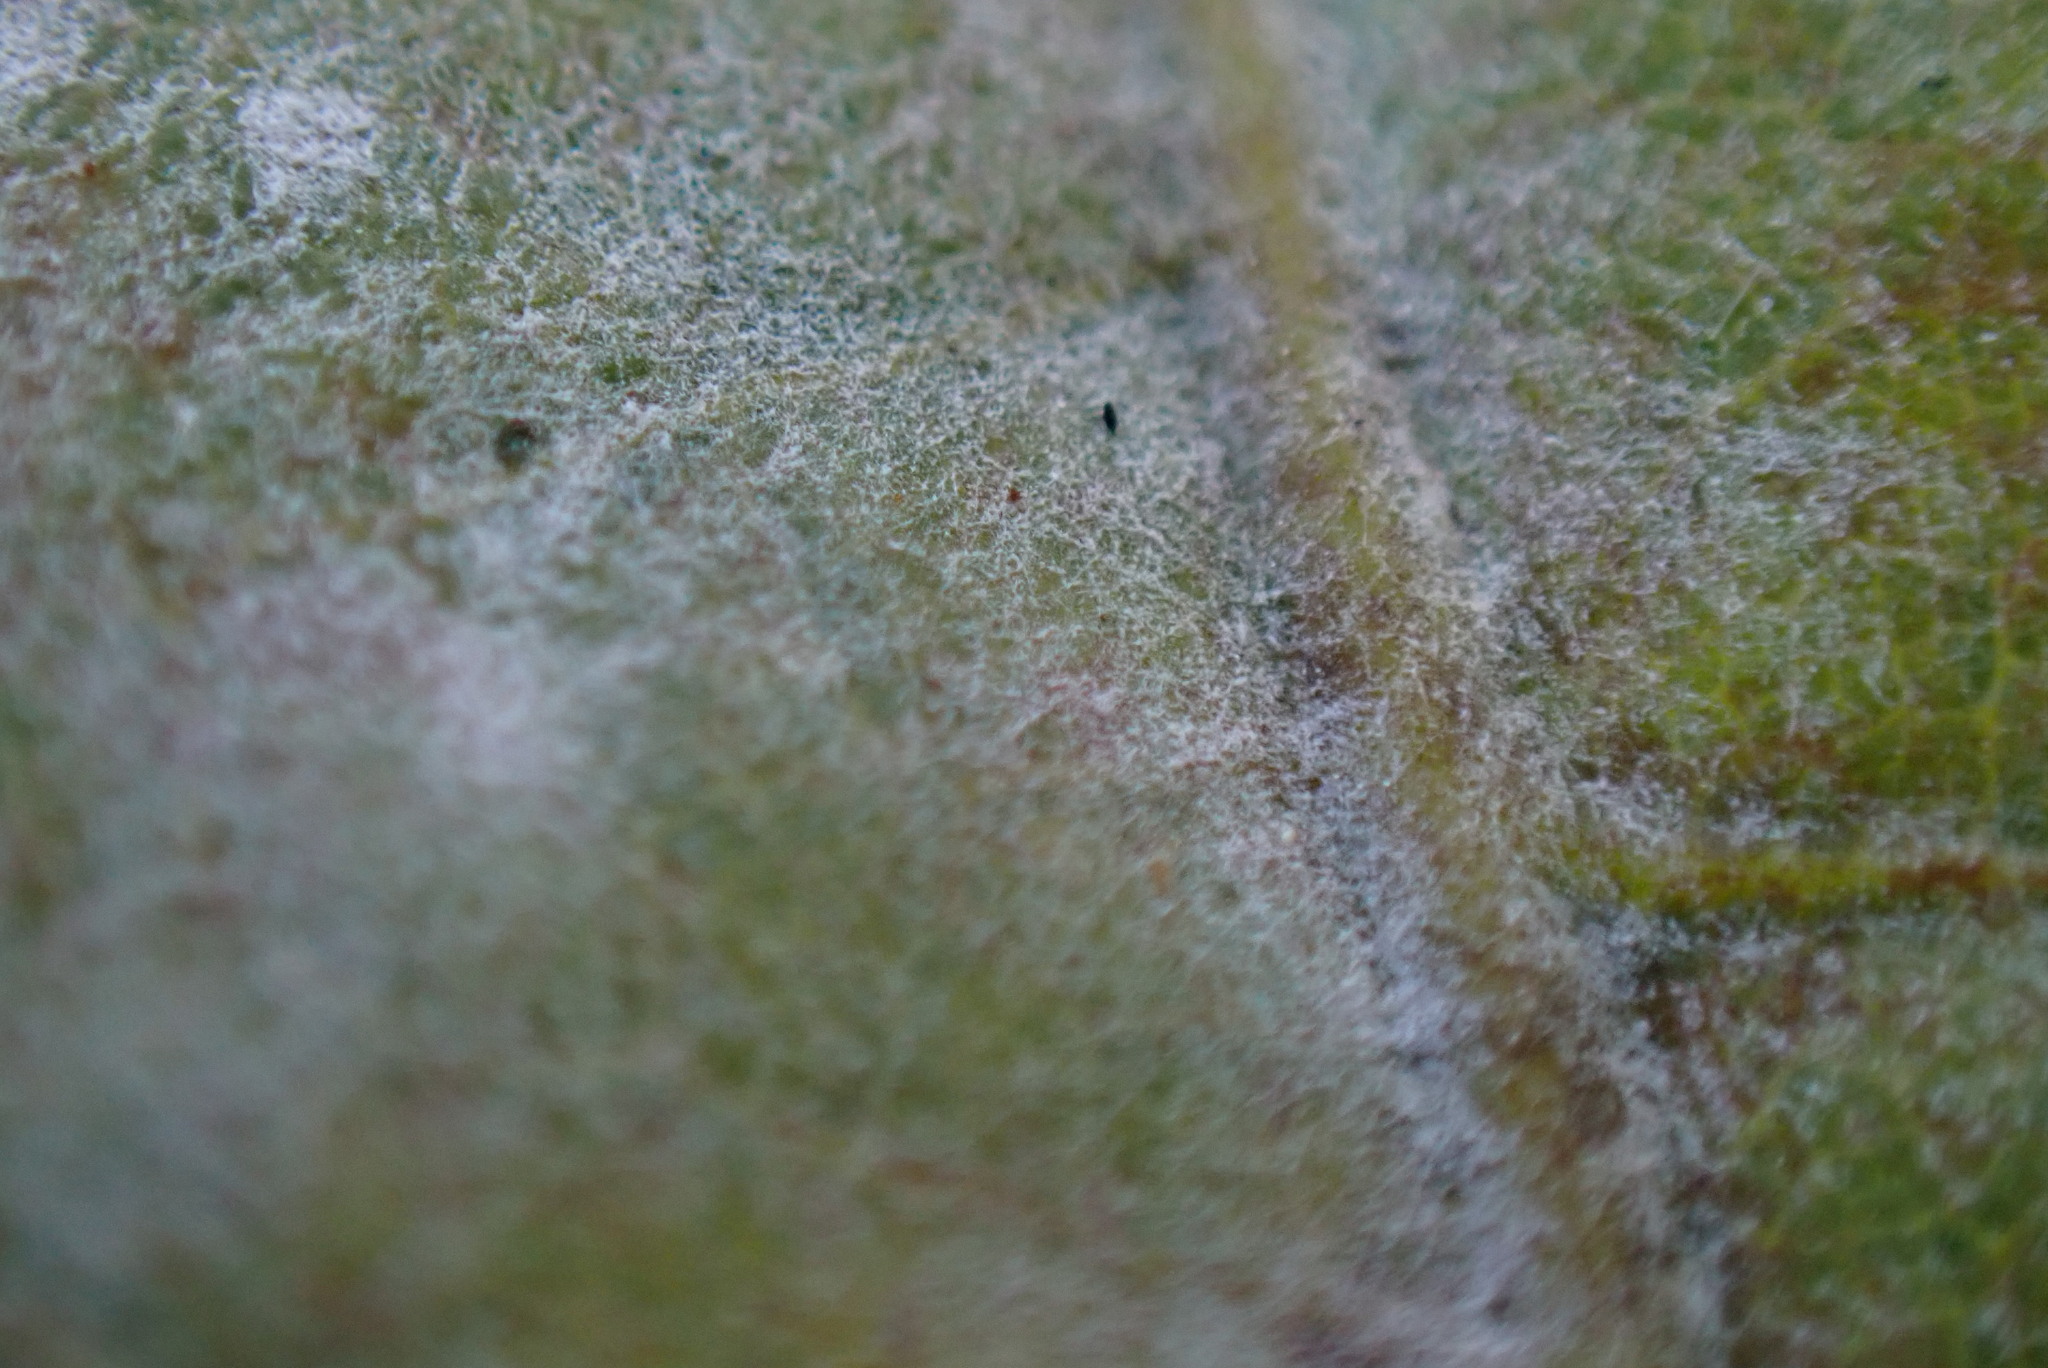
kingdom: Fungi
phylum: Ascomycota
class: Leotiomycetes
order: Helotiales
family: Erysiphaceae
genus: Erysiphe
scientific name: Erysiphe alphitoides
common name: Oak mildew
